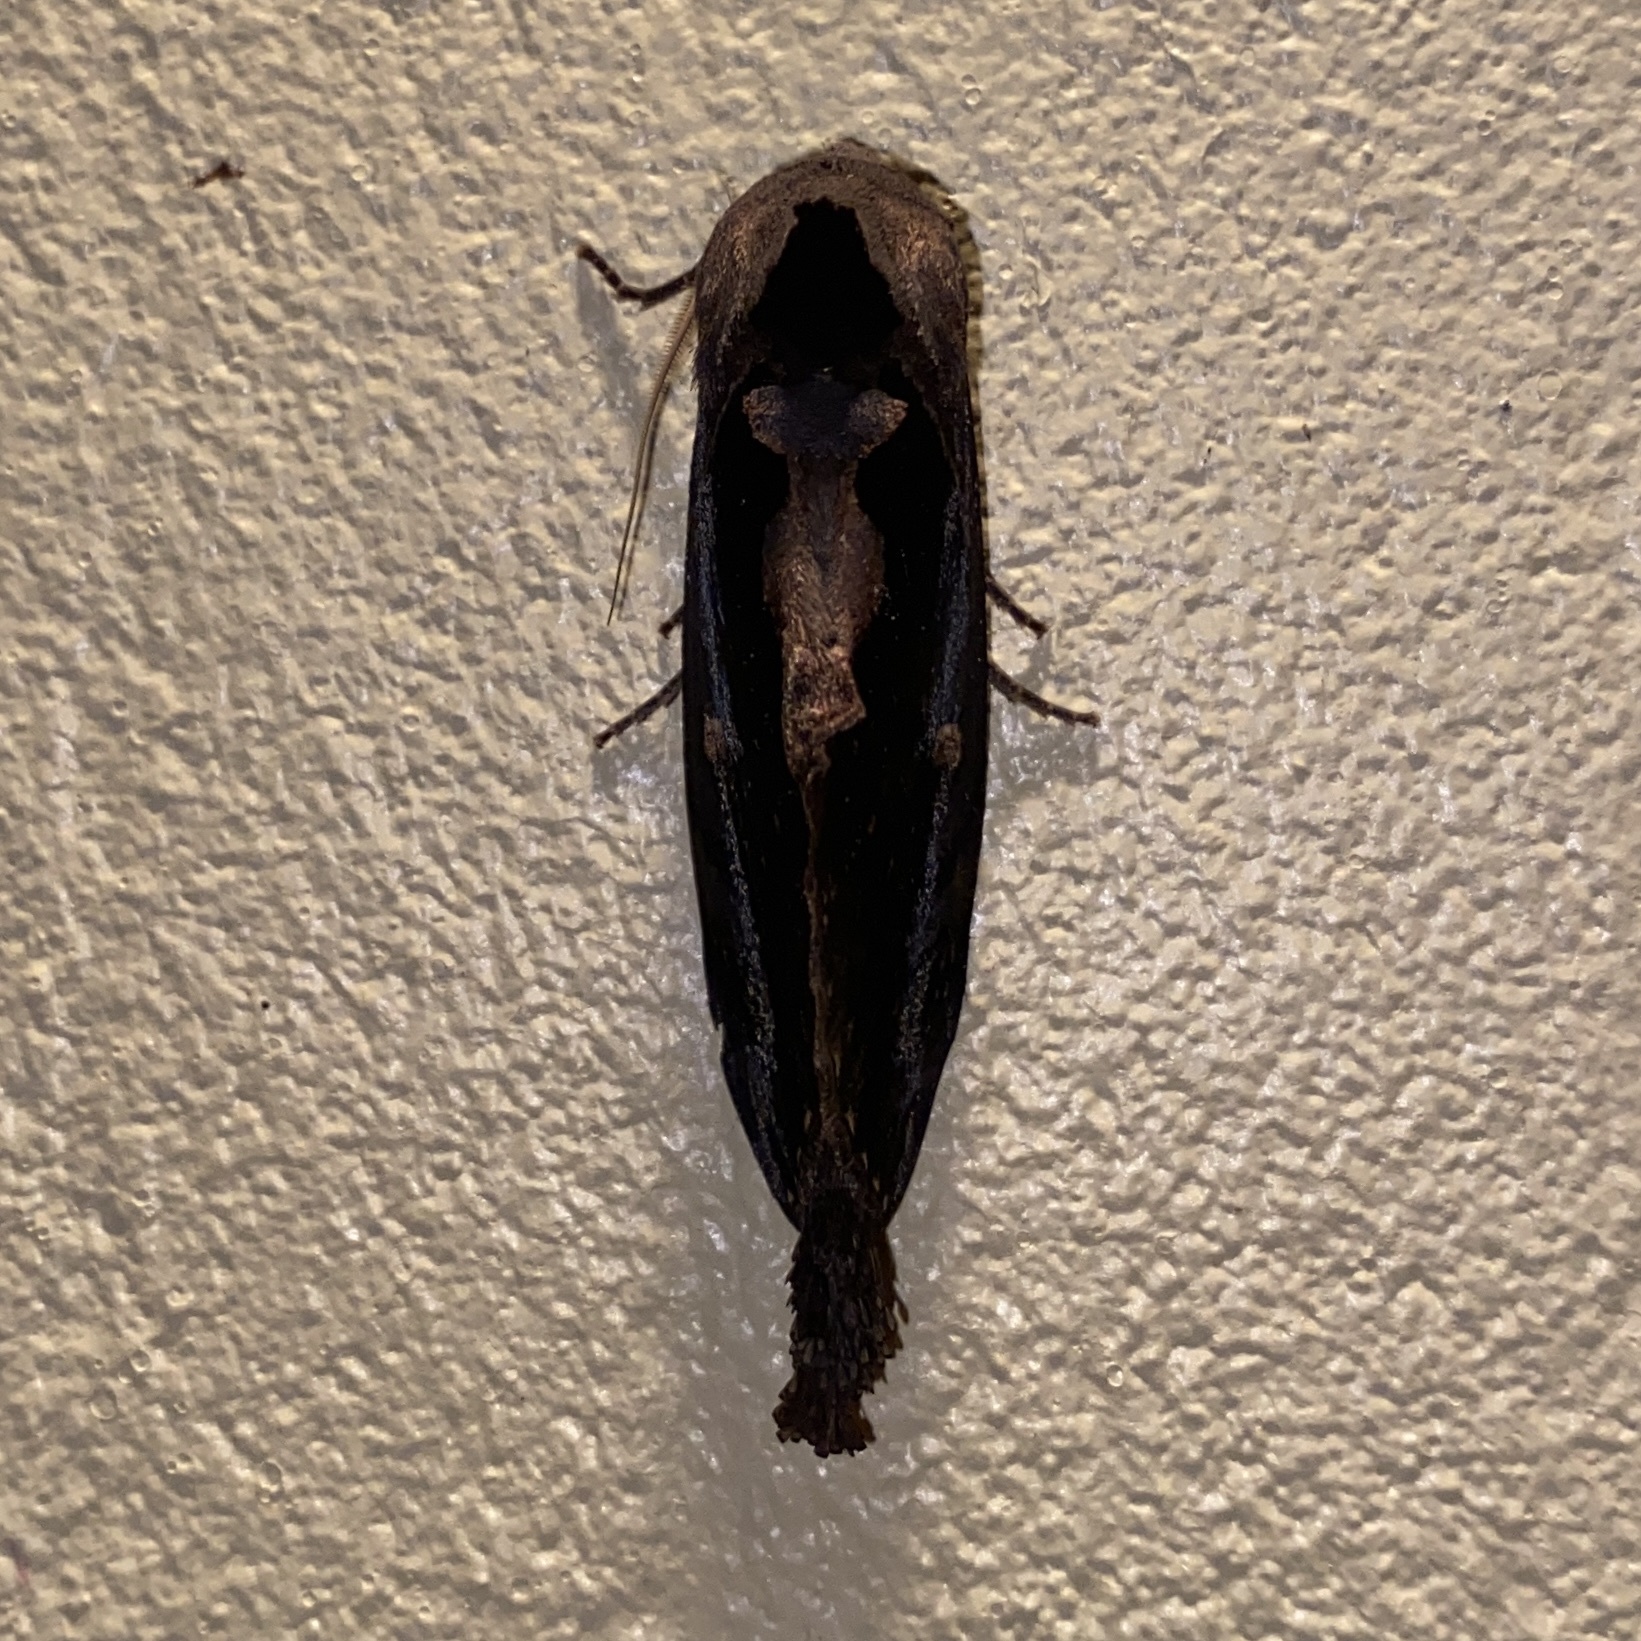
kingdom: Animalia
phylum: Arthropoda
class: Insecta
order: Lepidoptera
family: Notodontidae
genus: Crinodes
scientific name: Crinodes besckei
